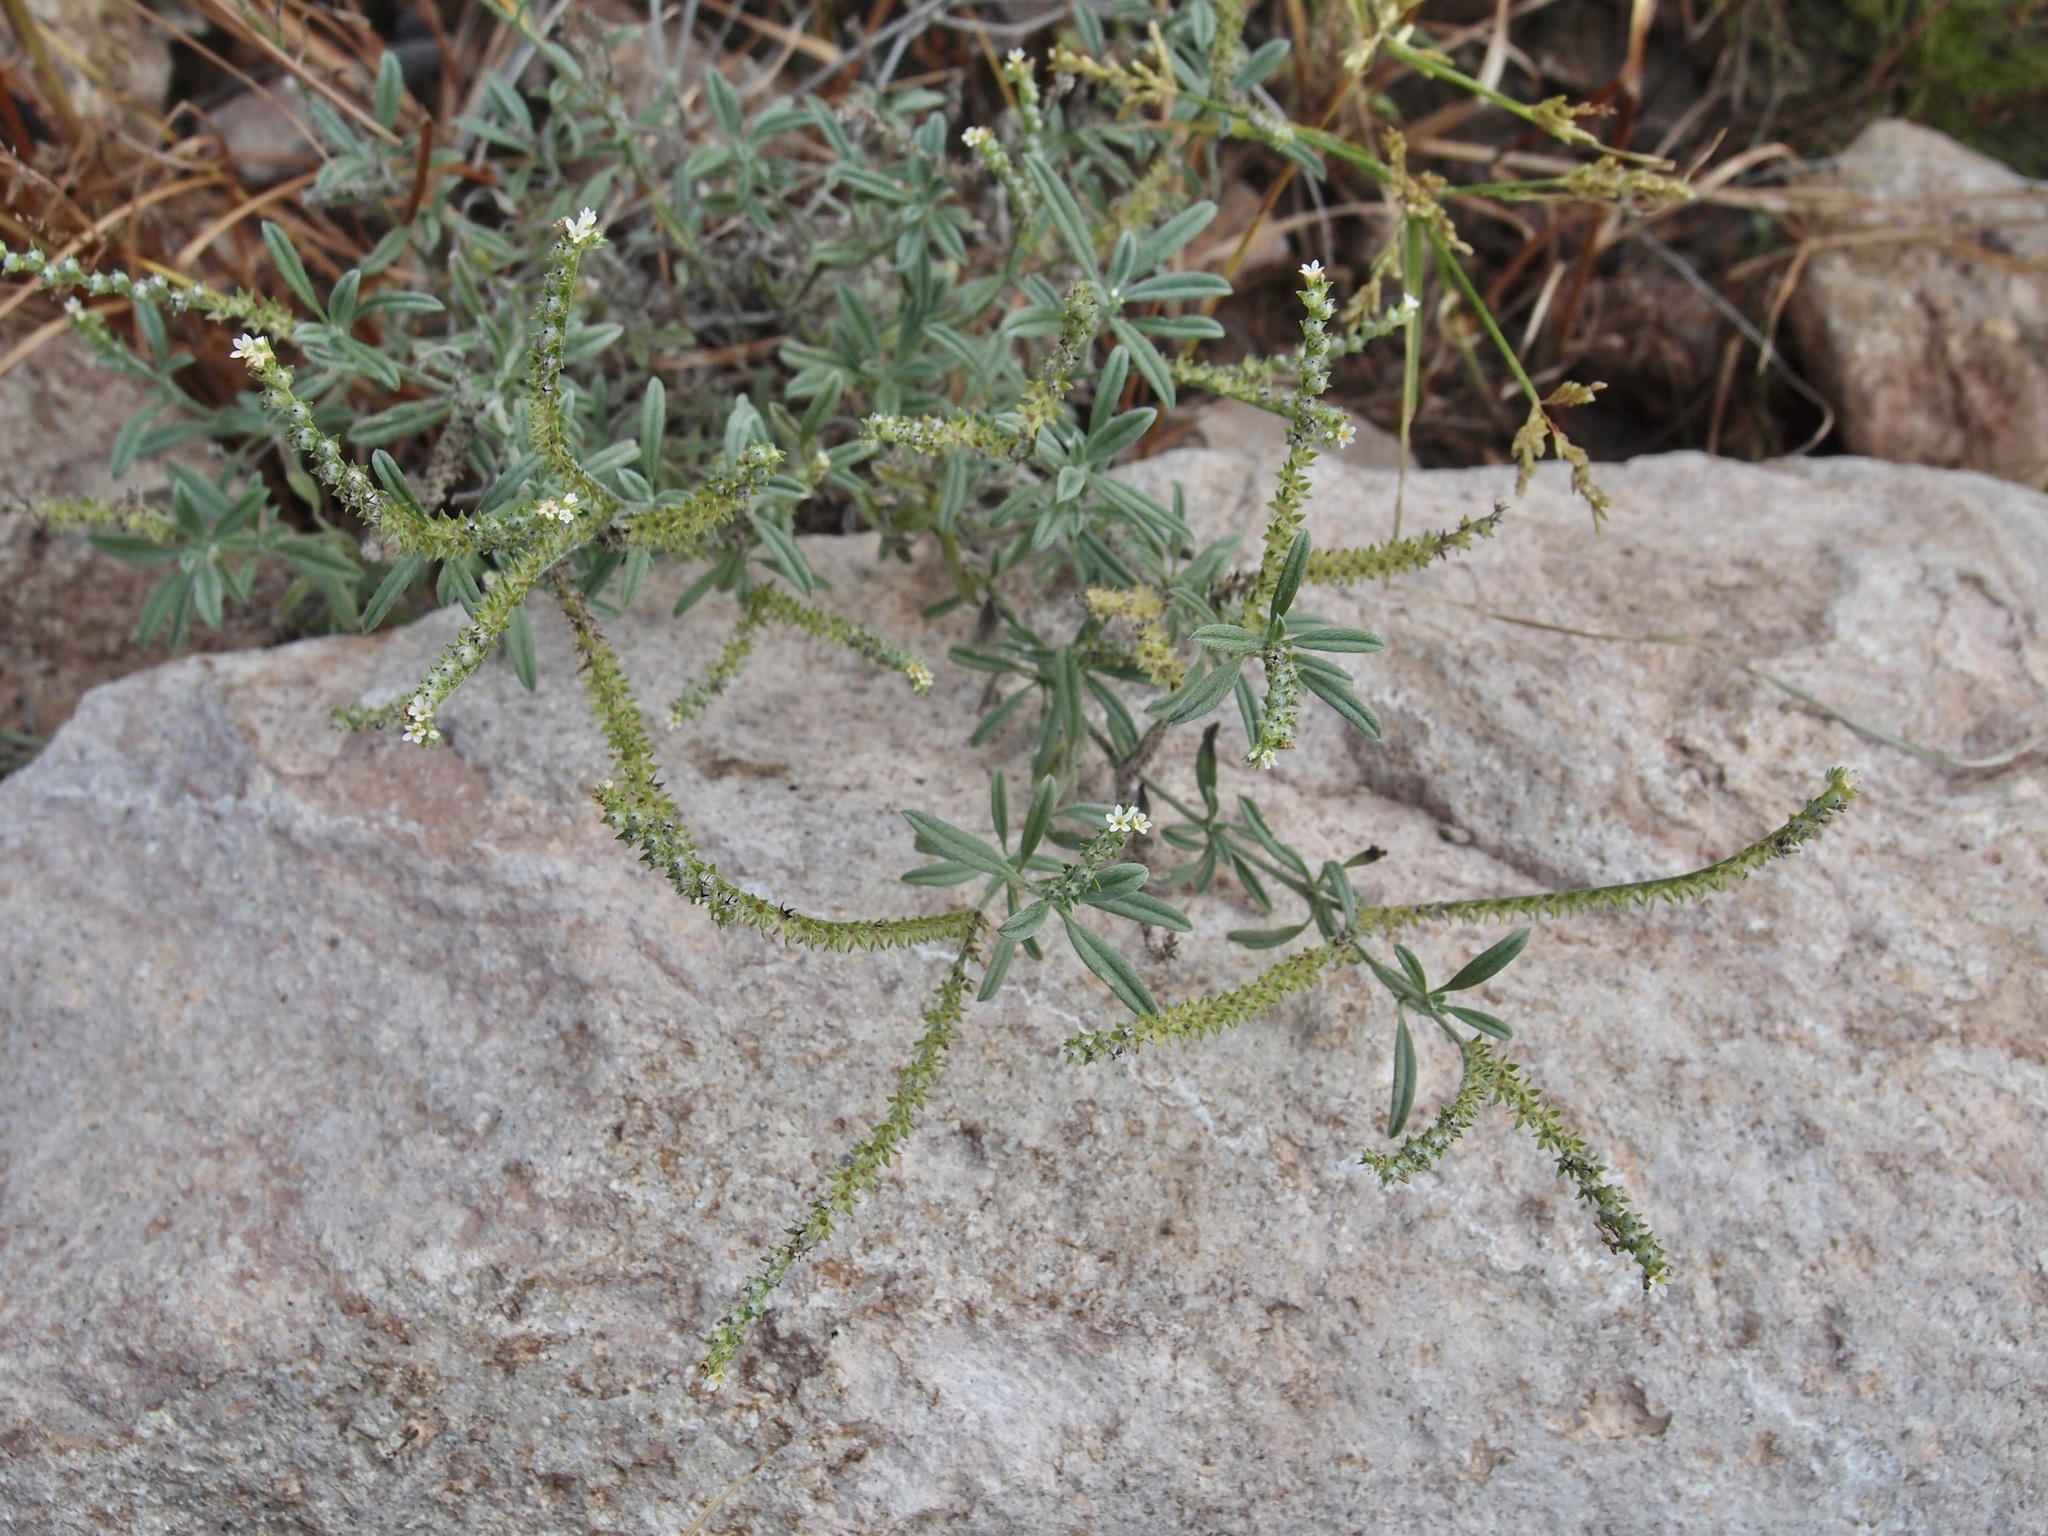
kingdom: Plantae
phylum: Tracheophyta
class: Magnoliopsida
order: Boraginales
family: Heliotropiaceae
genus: Euploca
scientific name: Euploca procumbens
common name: Fourspike heliotrope
